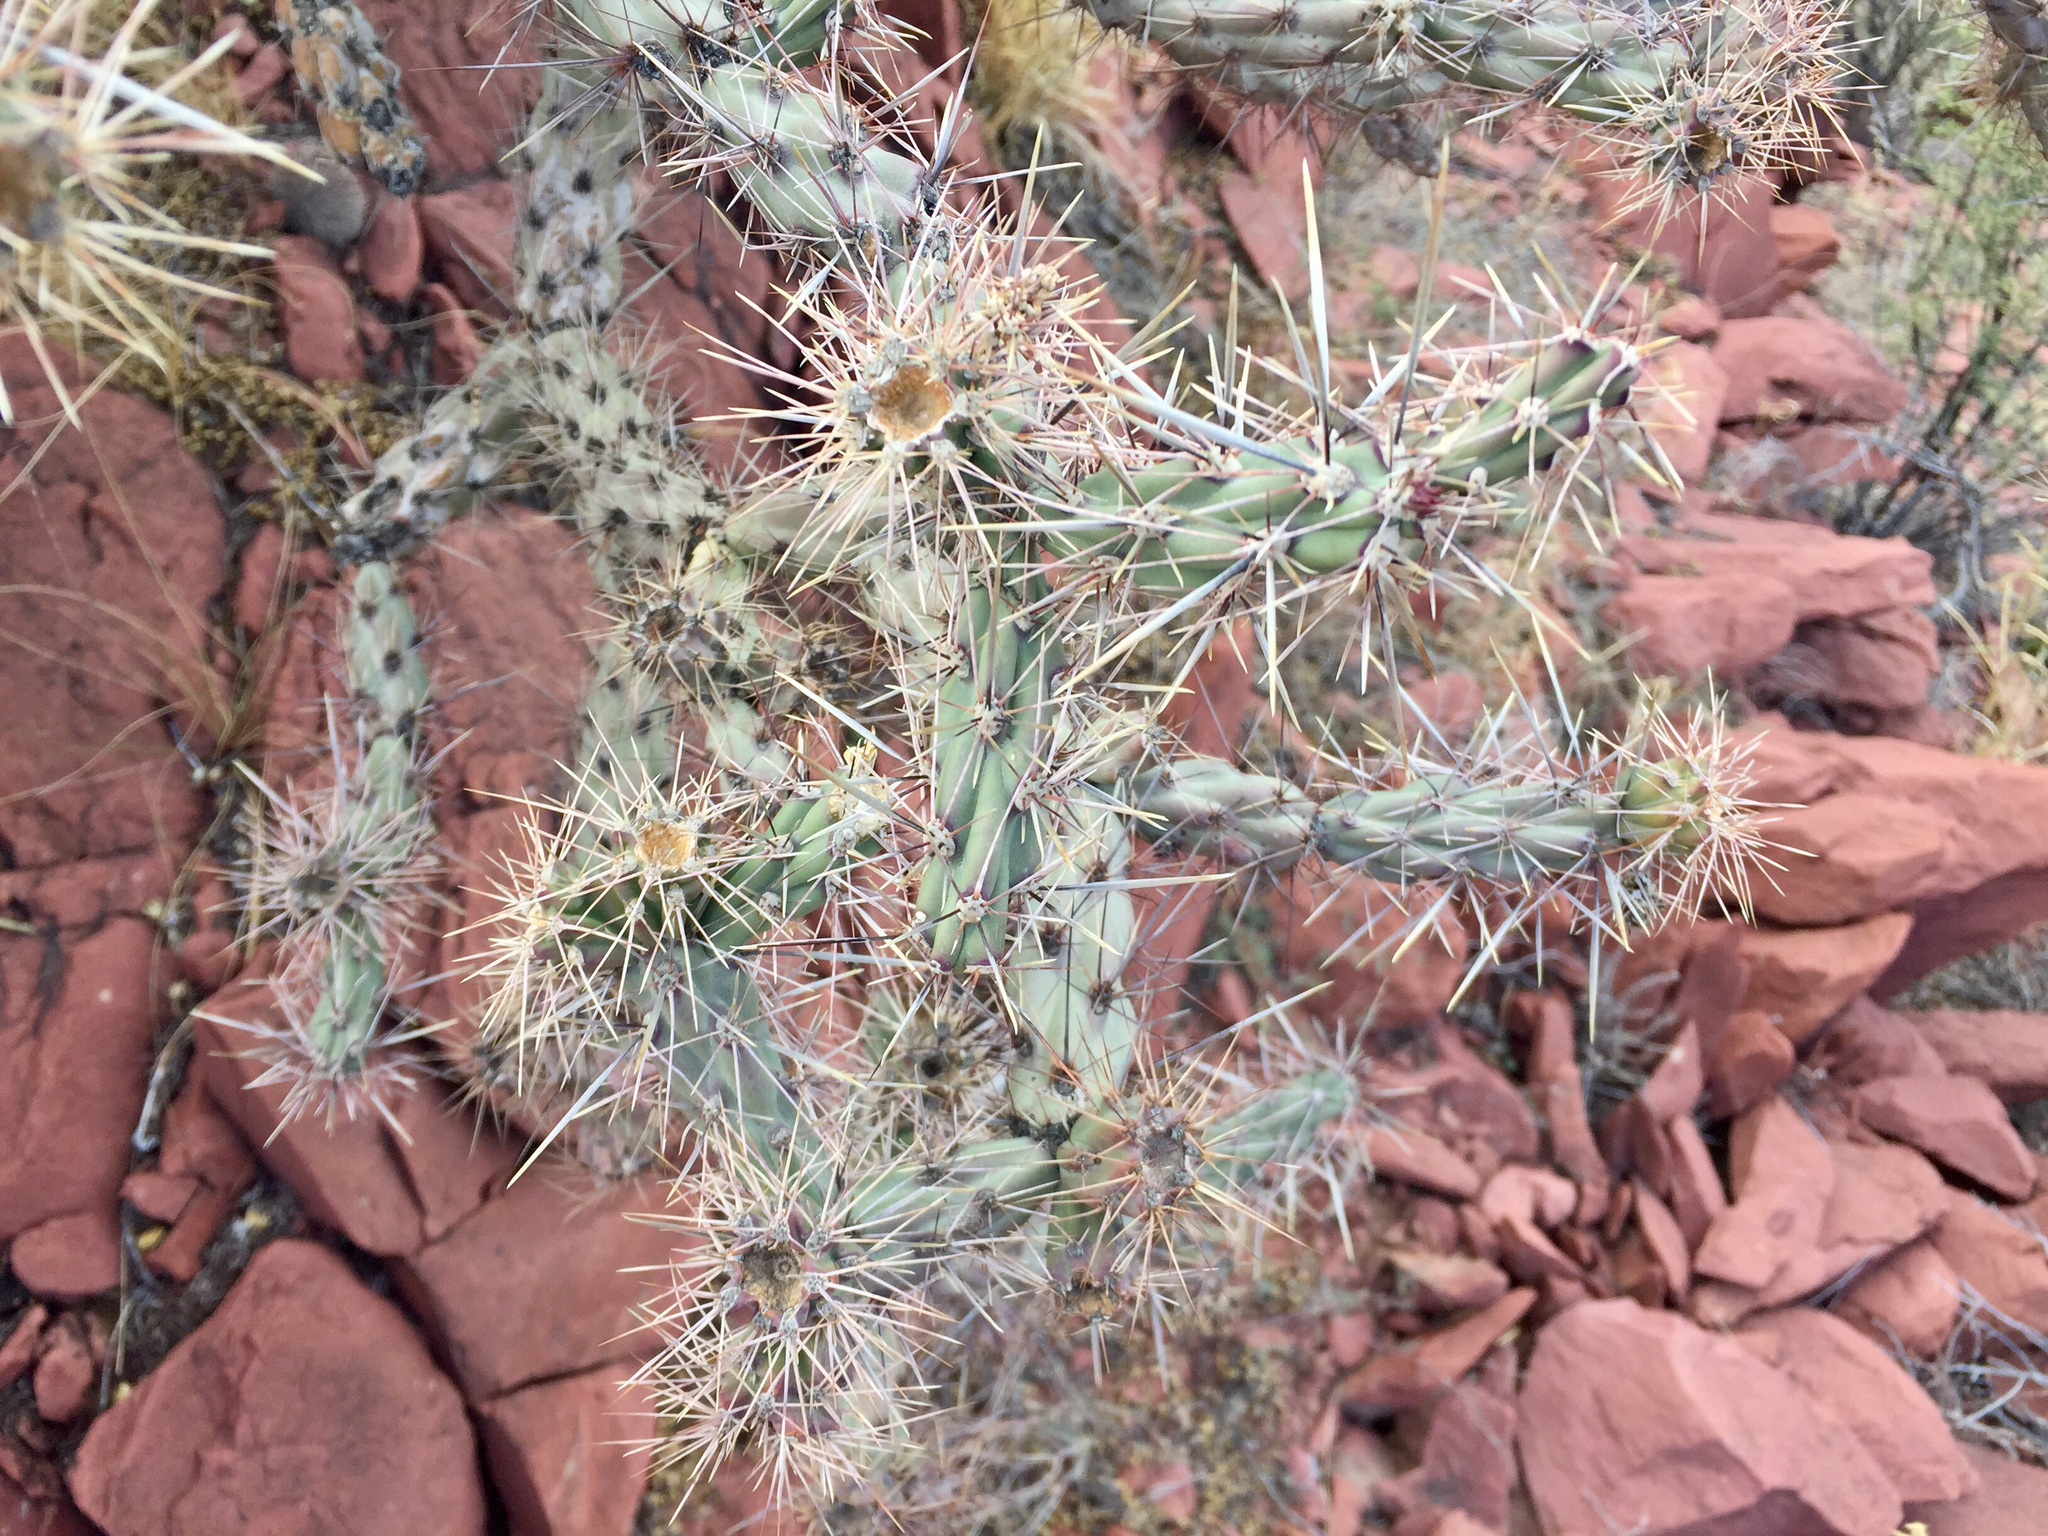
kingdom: Plantae
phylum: Tracheophyta
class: Magnoliopsida
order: Caryophyllales
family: Cactaceae
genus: Cylindropuntia
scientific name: Cylindropuntia acanthocarpa
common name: Buckhorn cholla
